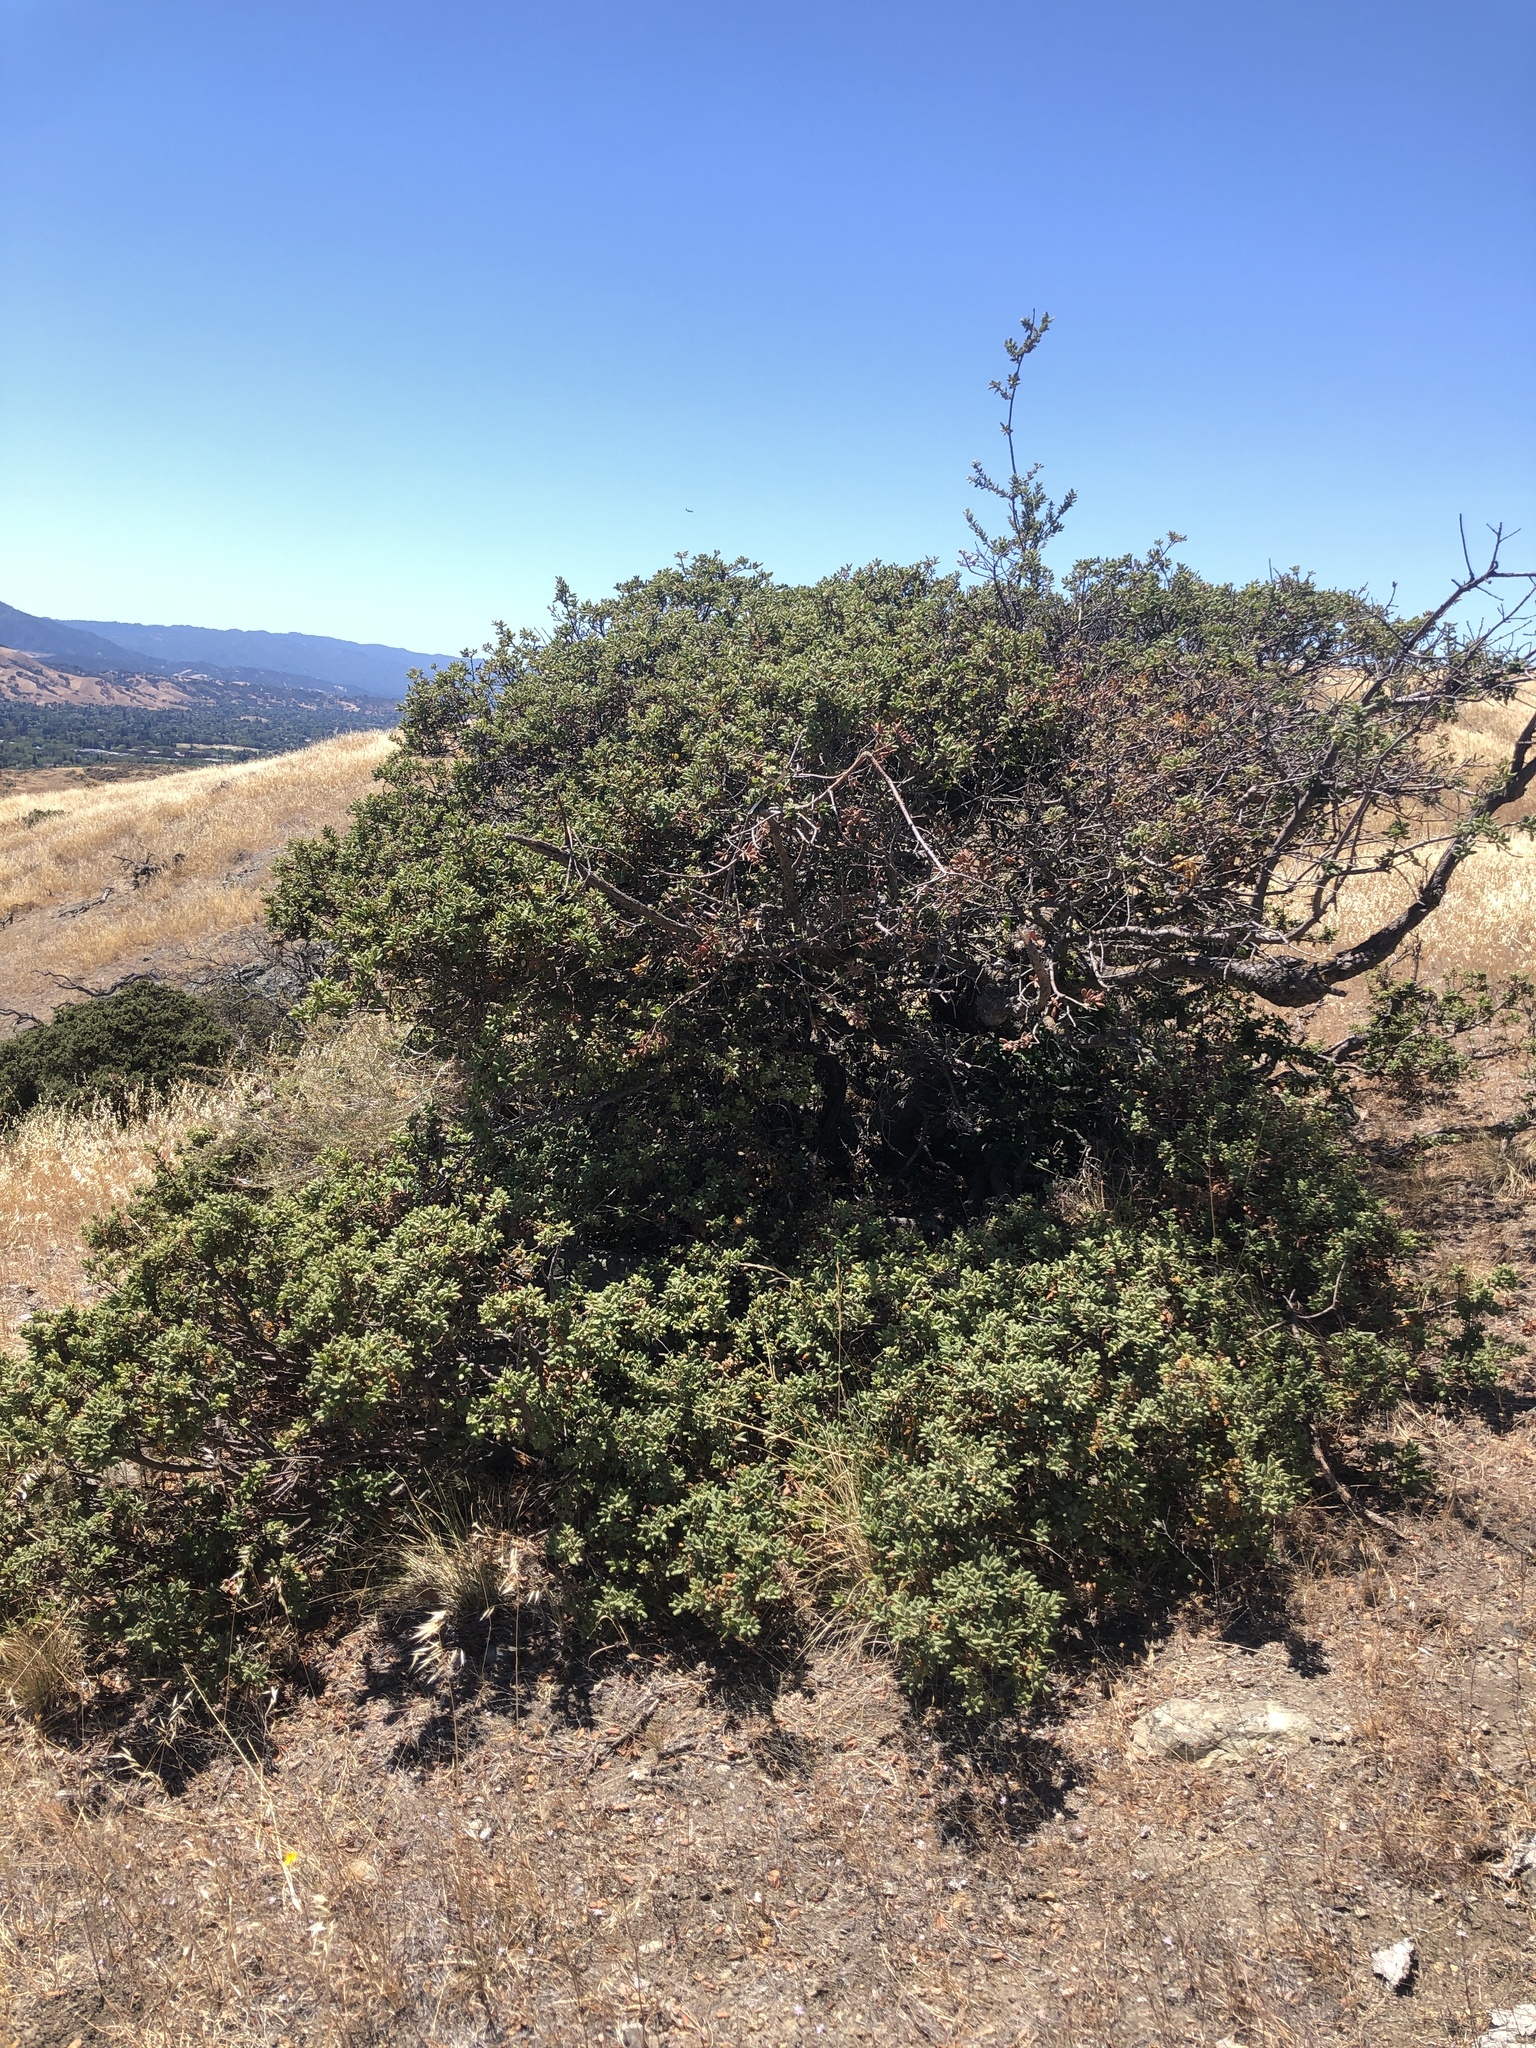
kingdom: Plantae
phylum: Tracheophyta
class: Magnoliopsida
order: Fagales
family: Fagaceae
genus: Quercus
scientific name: Quercus durata
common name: Leather oak
